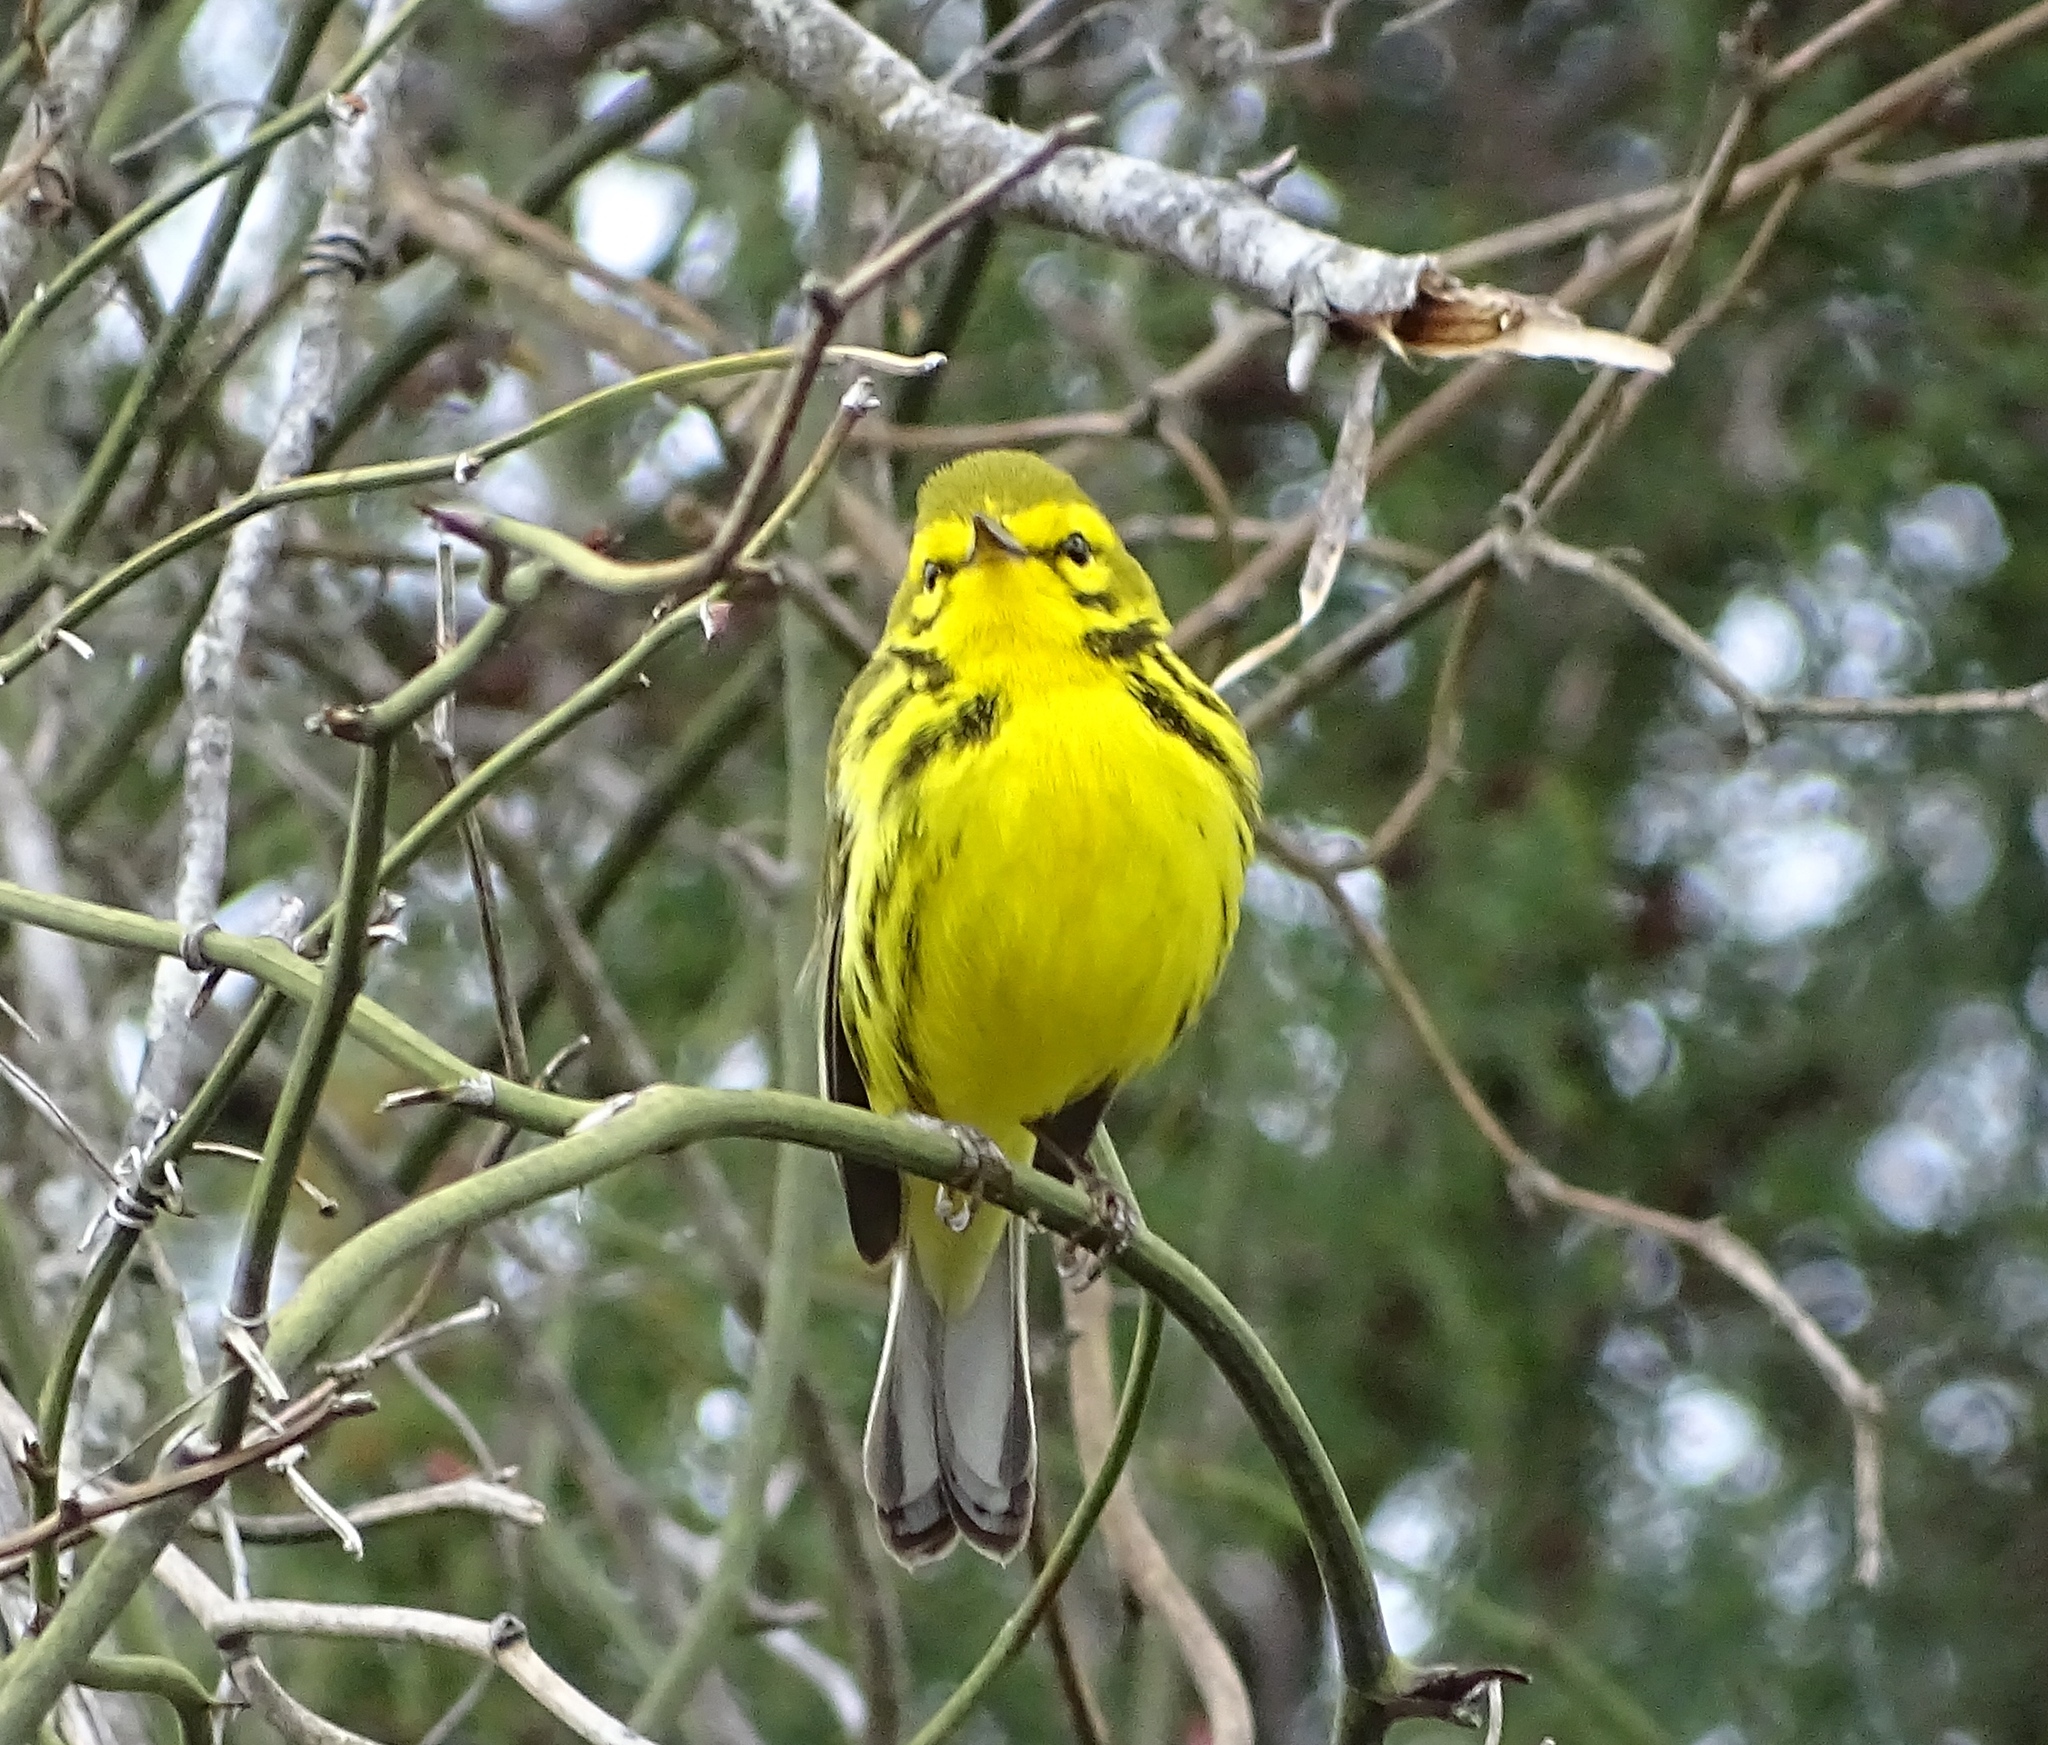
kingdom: Animalia
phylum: Chordata
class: Aves
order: Passeriformes
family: Parulidae
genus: Setophaga
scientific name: Setophaga discolor
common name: Prairie warbler
